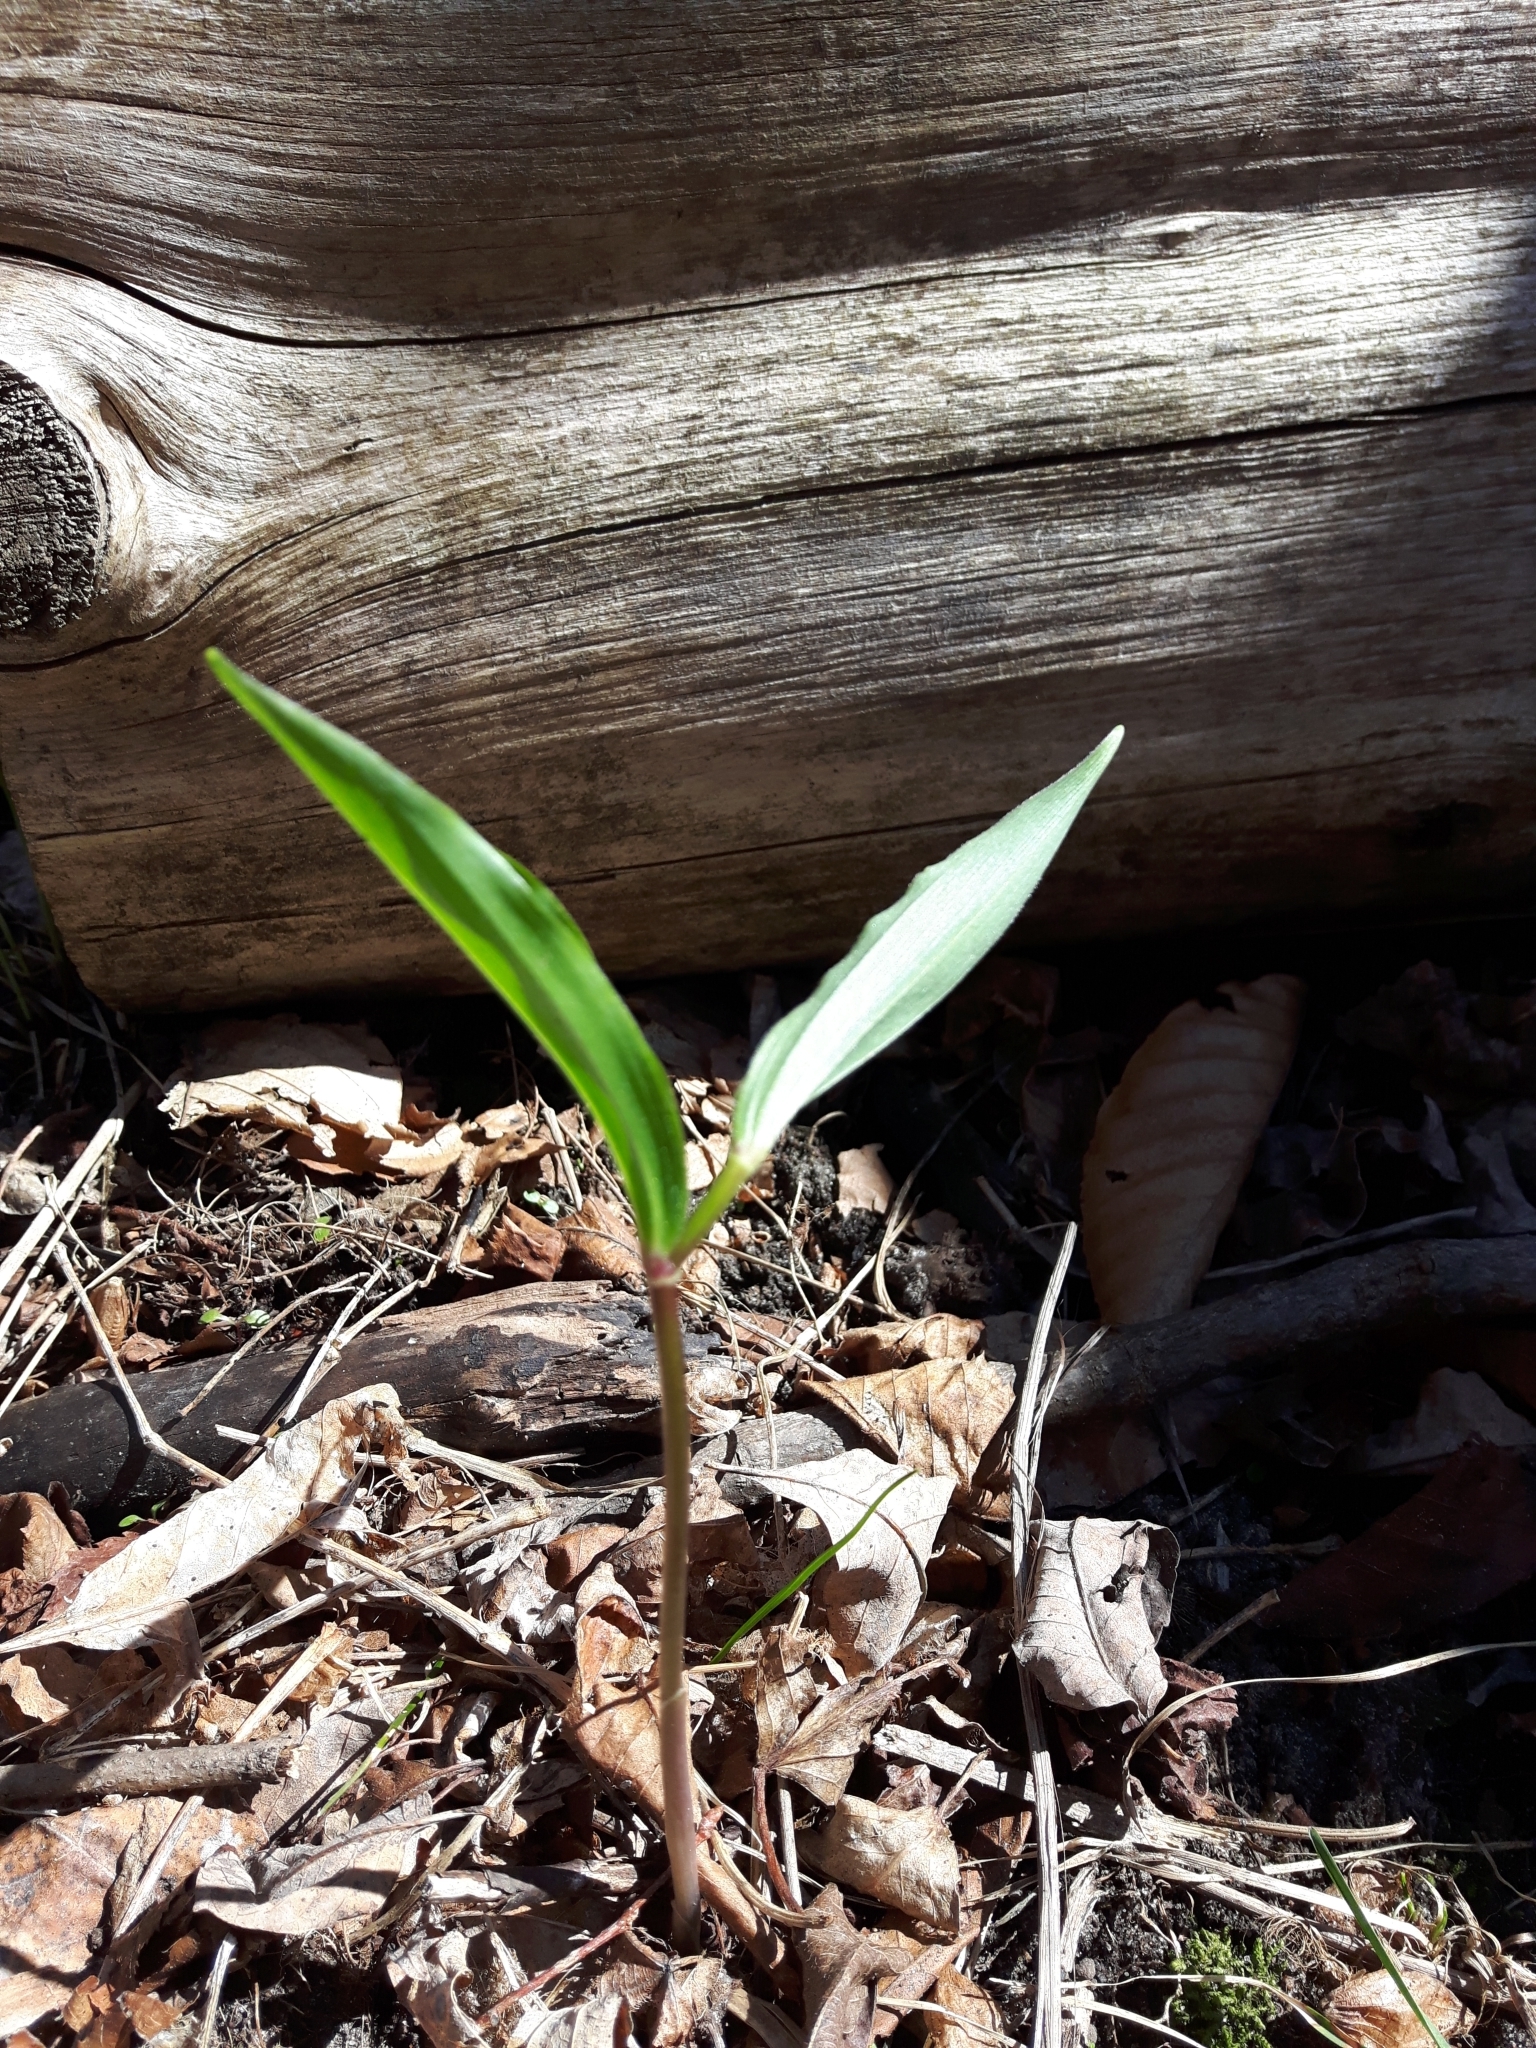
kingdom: Plantae
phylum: Tracheophyta
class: Liliopsida
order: Asparagales
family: Asparagaceae
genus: Maianthemum
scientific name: Maianthemum racemosum
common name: False spikenard
